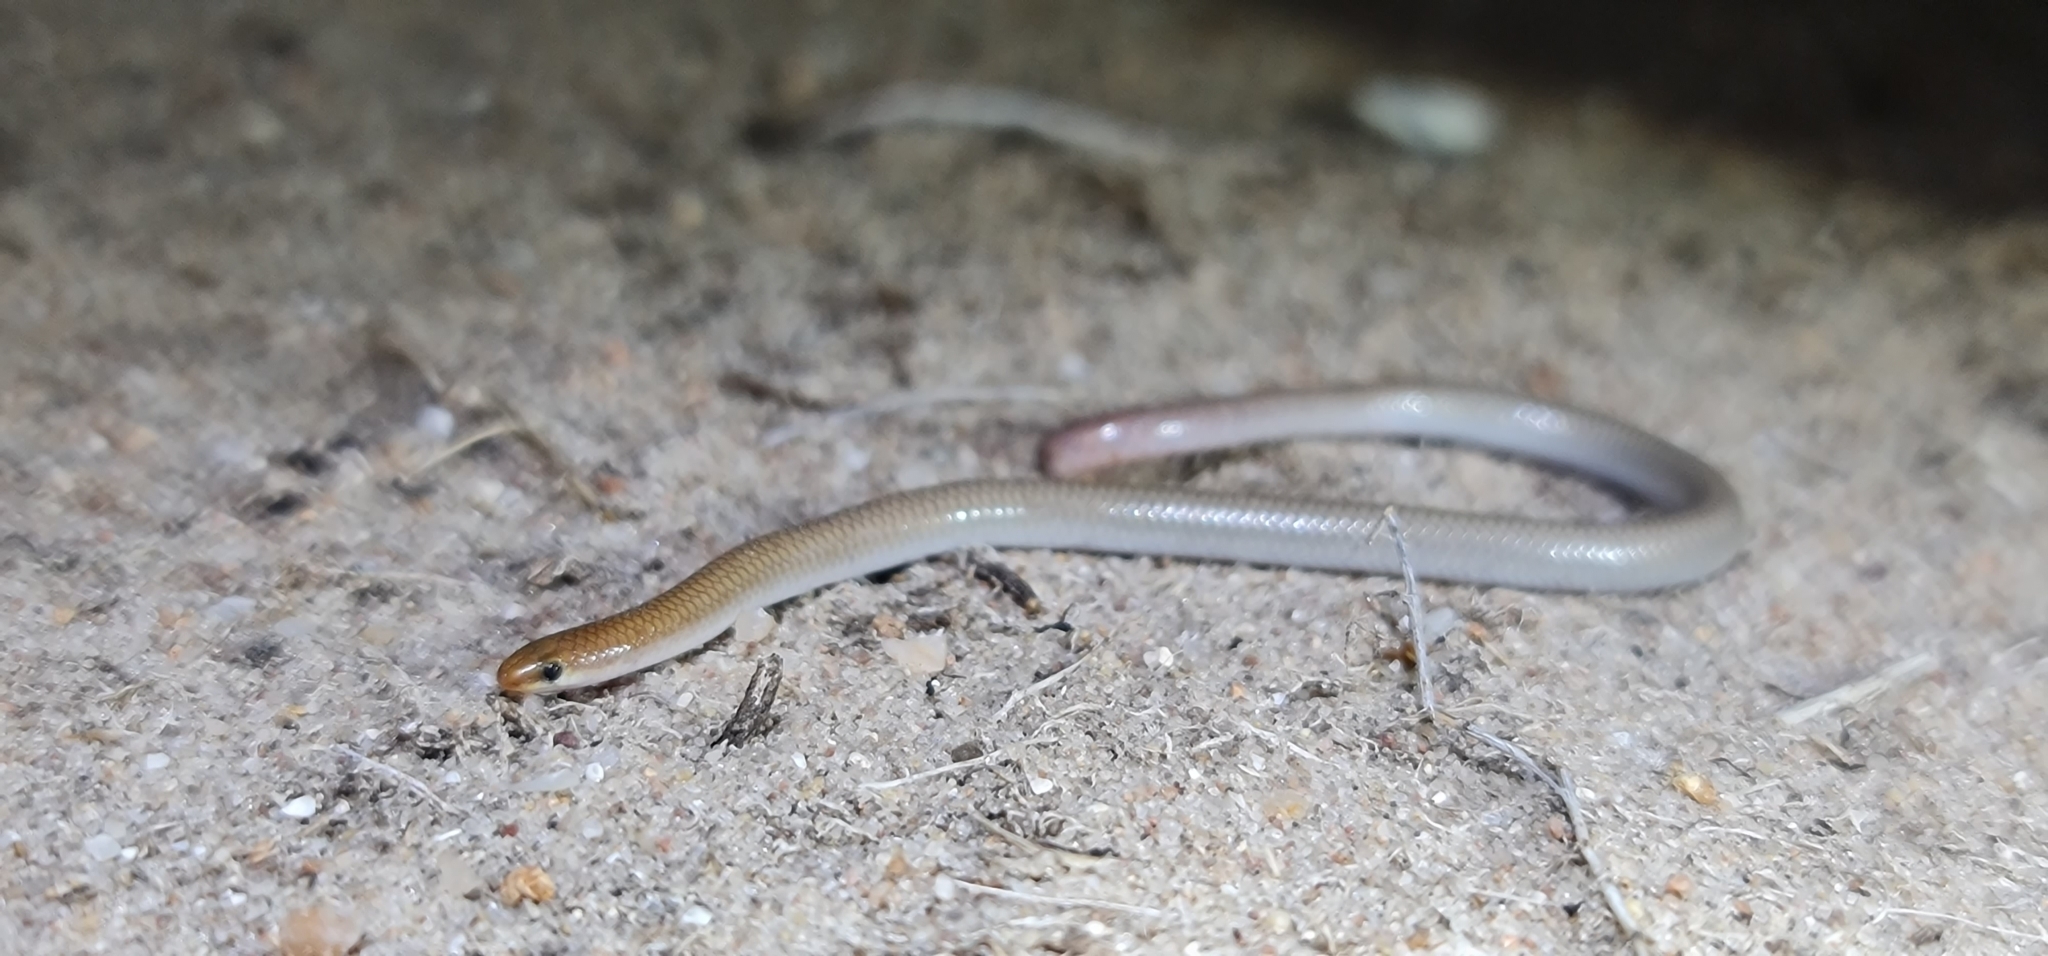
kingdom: Animalia
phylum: Chordata
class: Squamata
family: Pygopodidae
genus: Aprasia
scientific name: Aprasia inaurita
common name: Mallee worm-lizard
